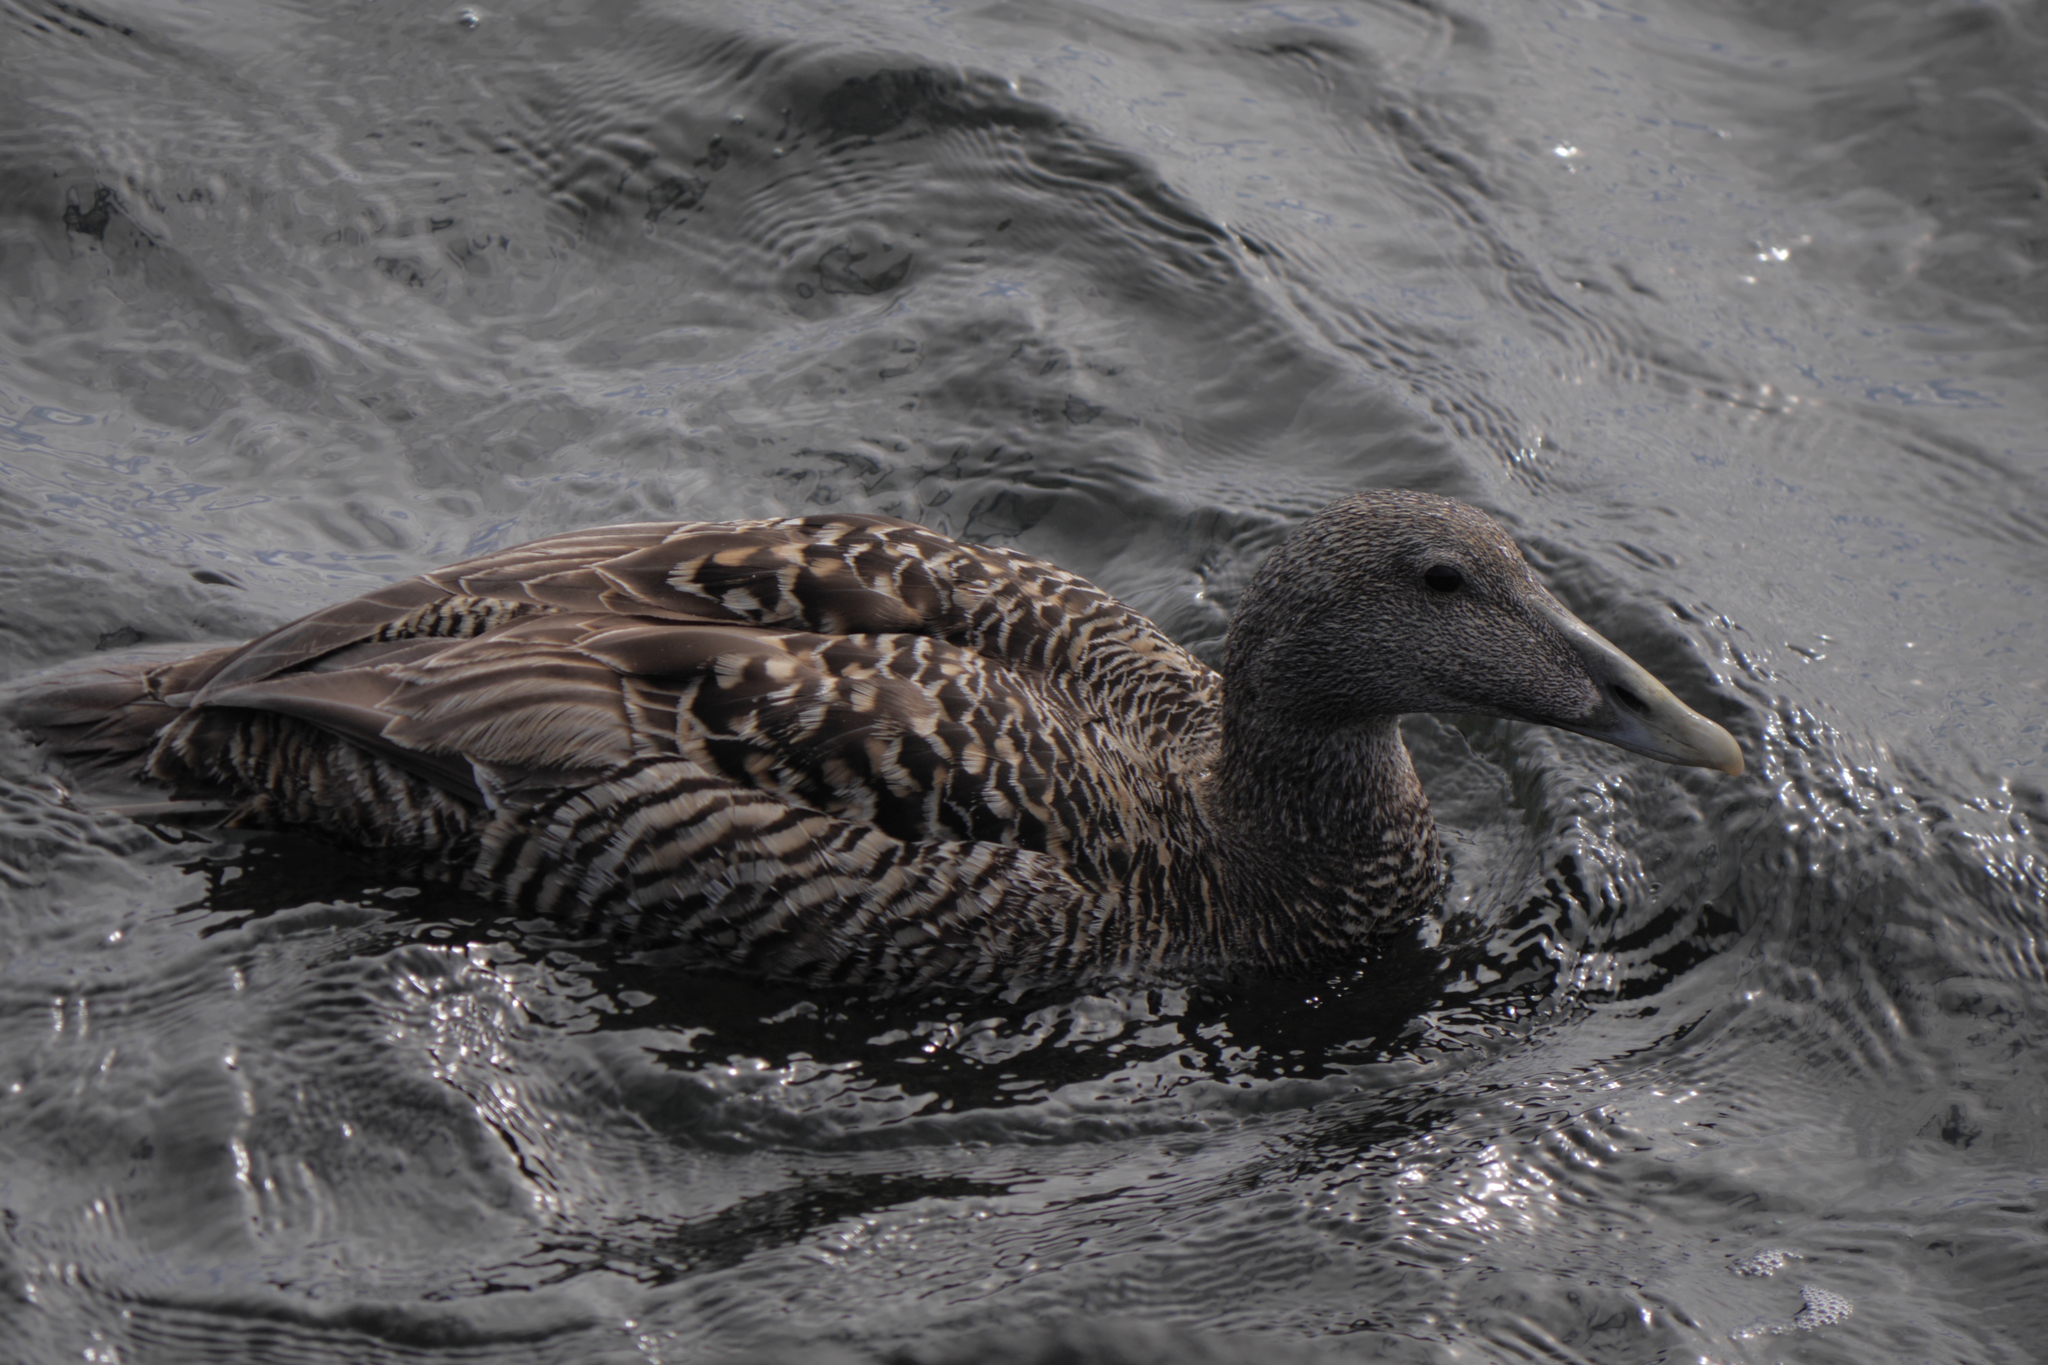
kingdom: Animalia
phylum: Chordata
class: Aves
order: Anseriformes
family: Anatidae
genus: Somateria
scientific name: Somateria mollissima
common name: Common eider
